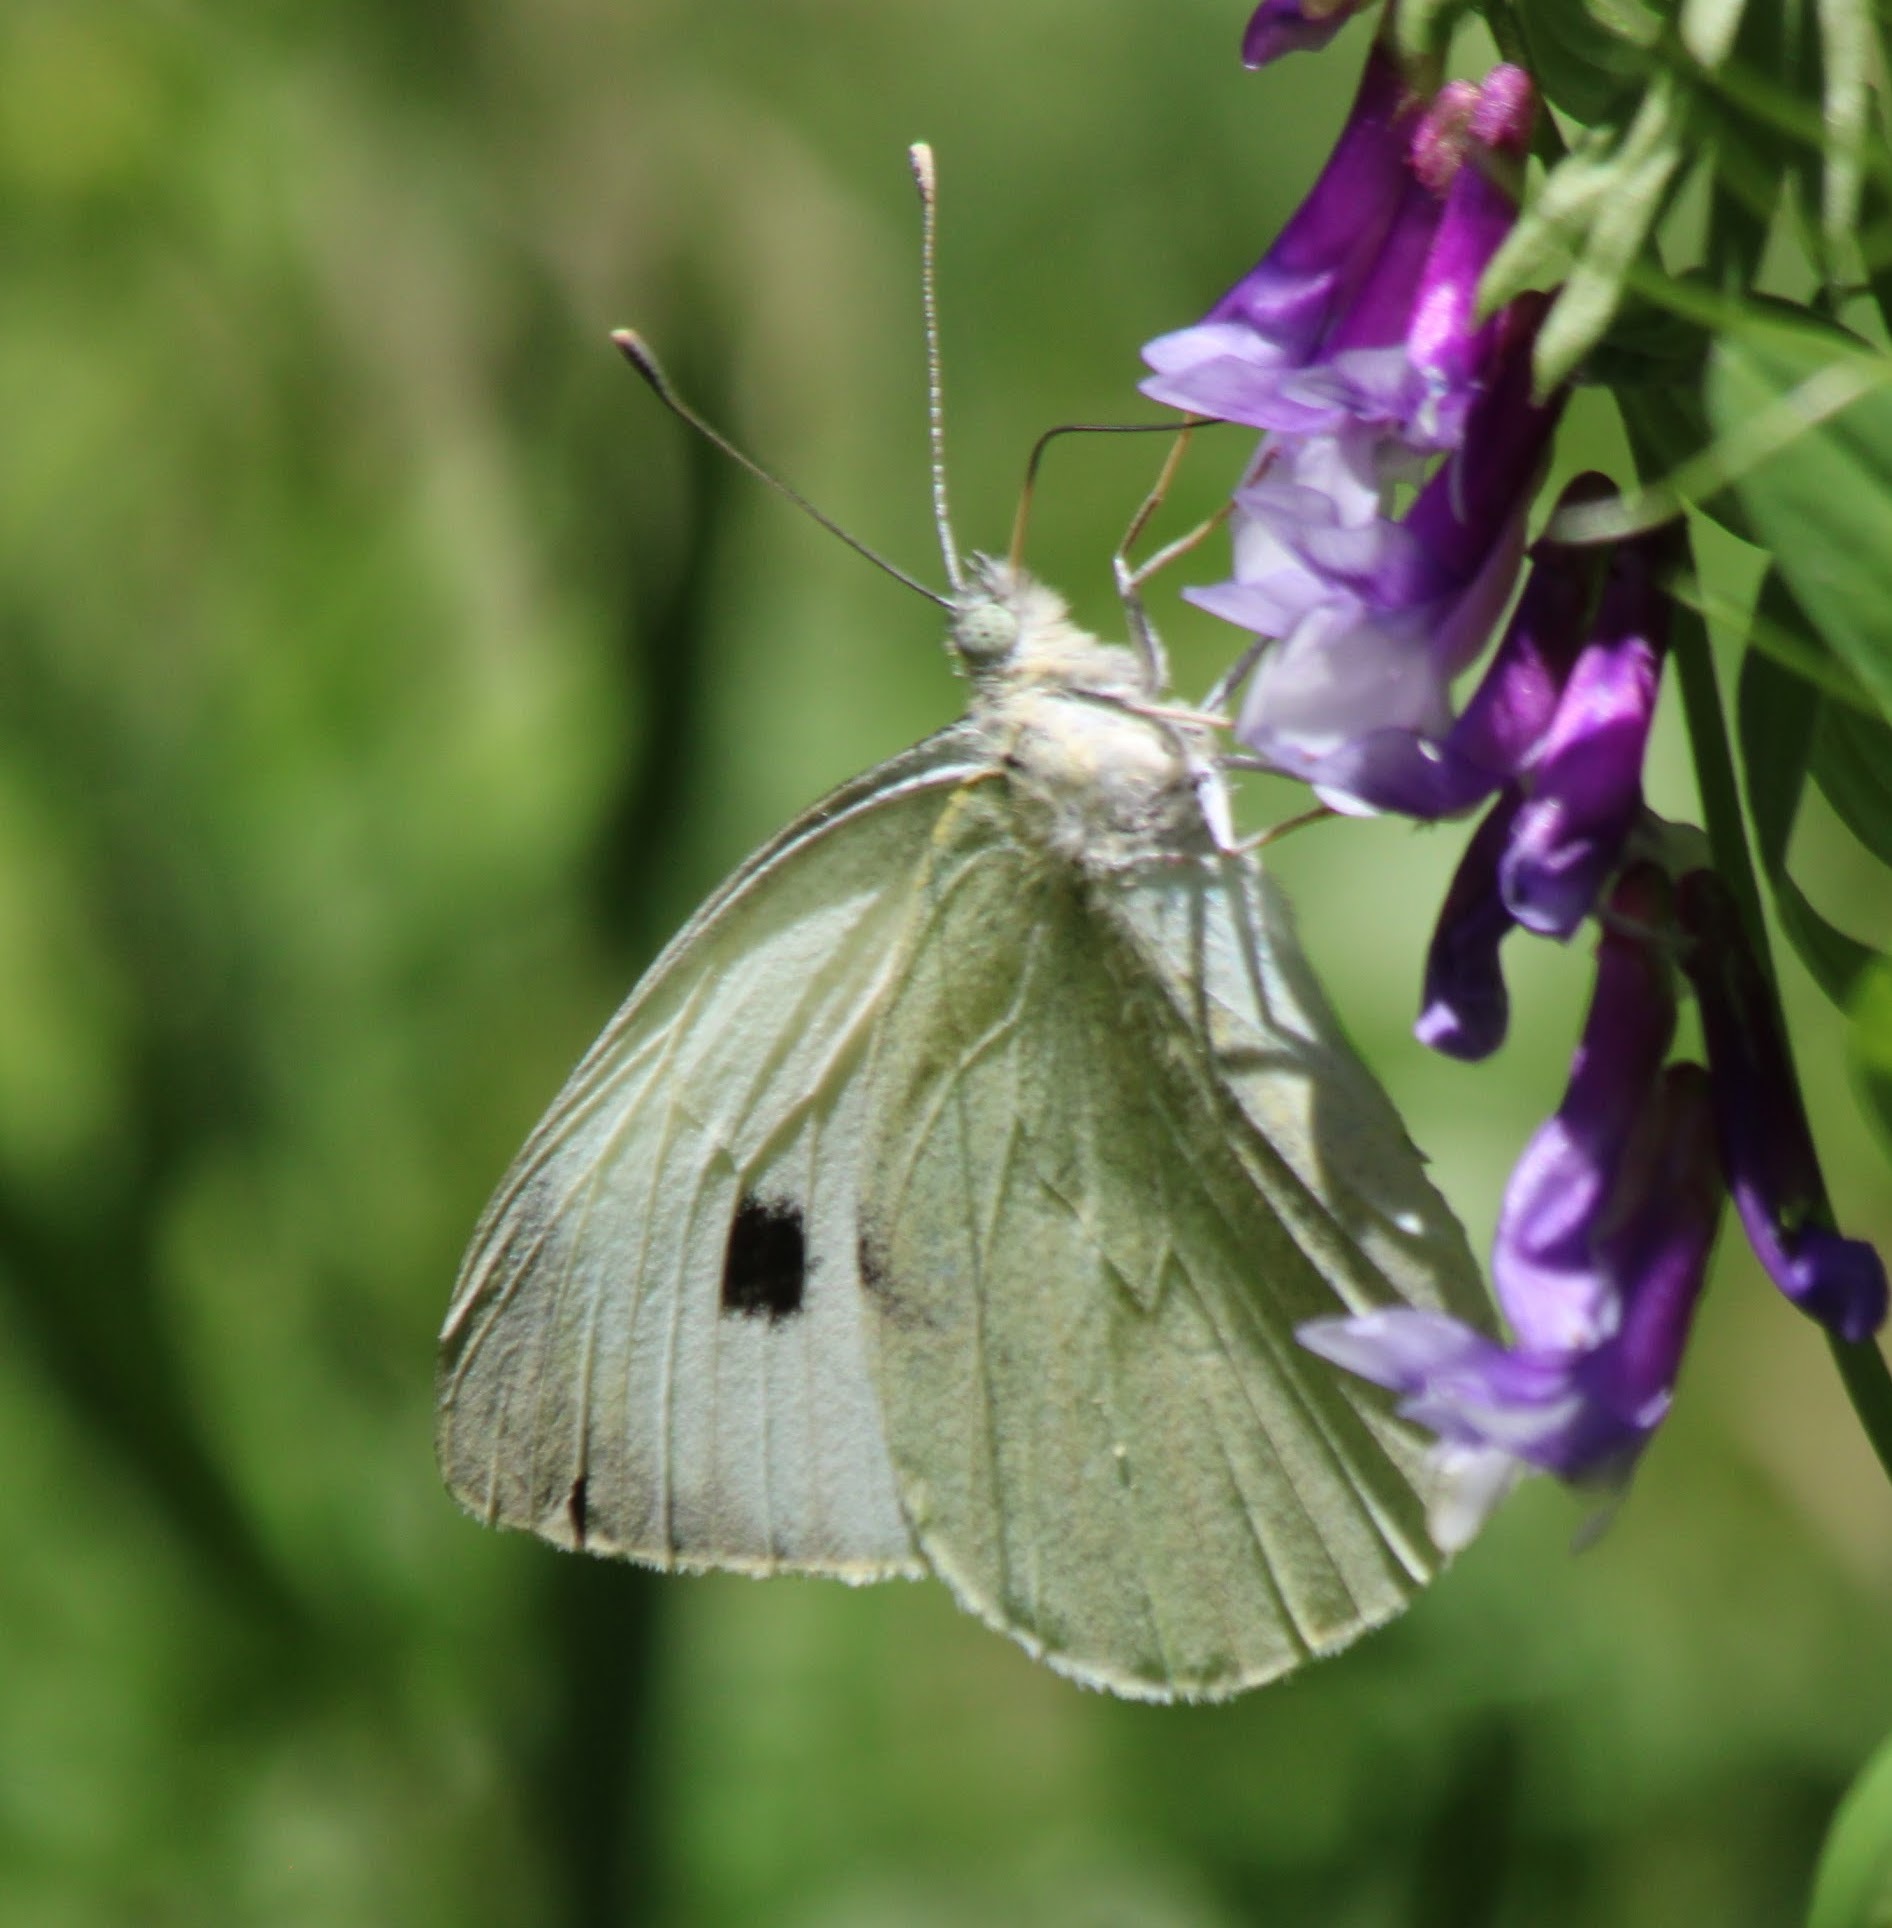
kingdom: Animalia
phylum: Arthropoda
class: Insecta
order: Lepidoptera
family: Pieridae
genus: Pieris
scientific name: Pieris brassicae
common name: Large white
